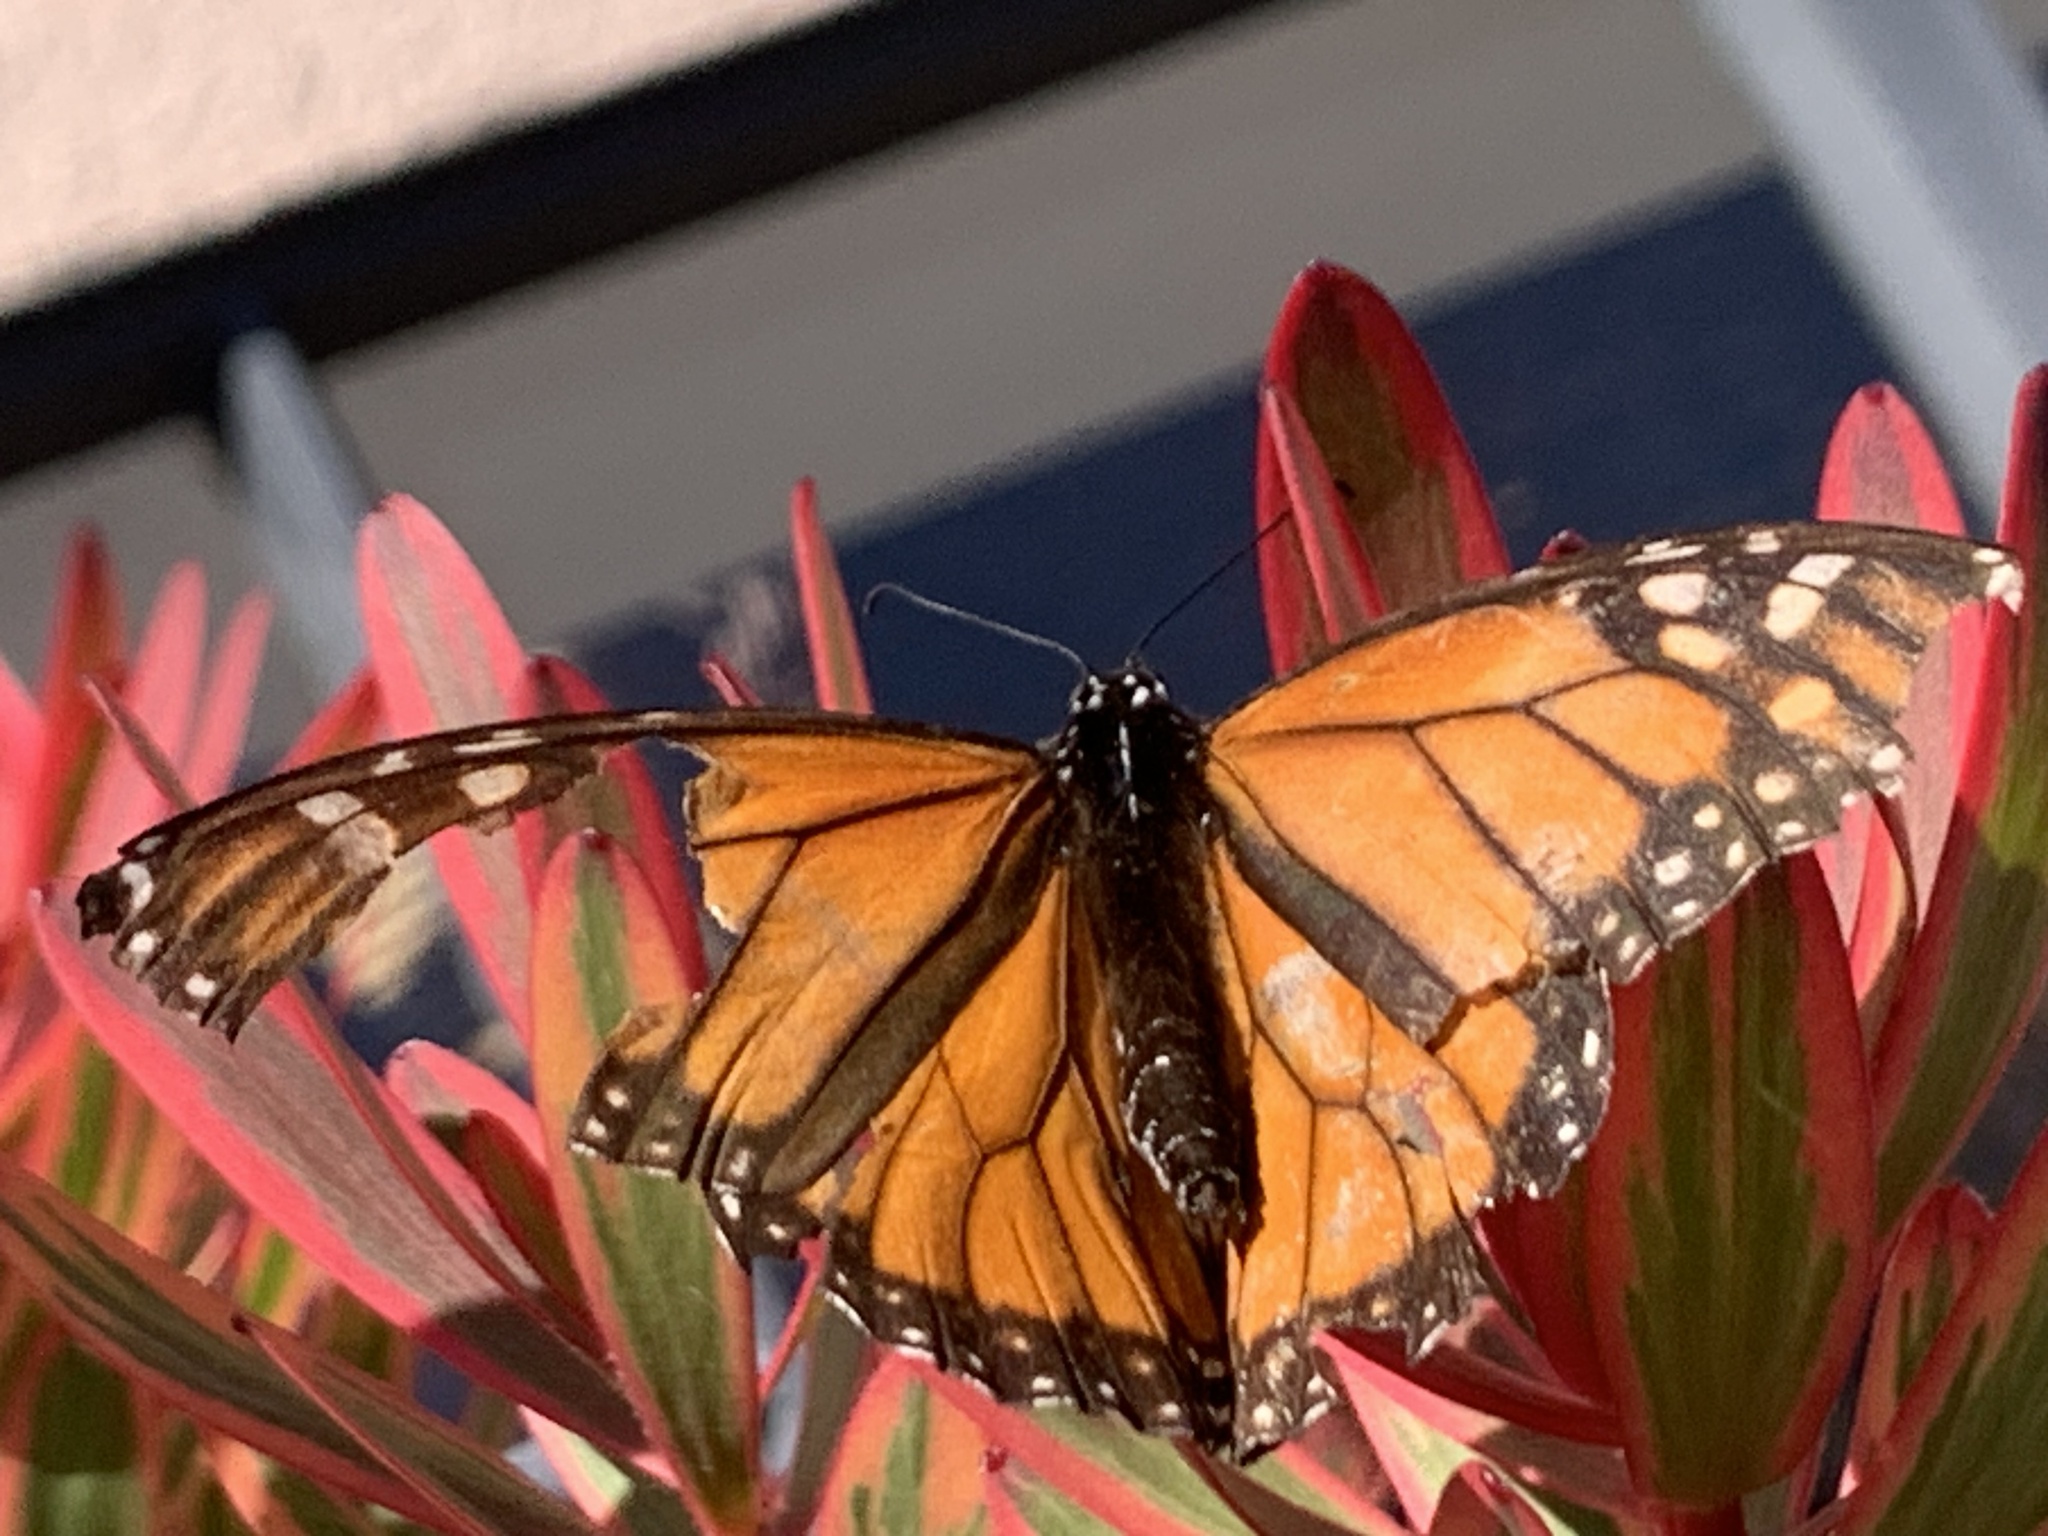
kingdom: Animalia
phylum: Arthropoda
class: Insecta
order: Lepidoptera
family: Nymphalidae
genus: Danaus
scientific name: Danaus plexippus
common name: Monarch
